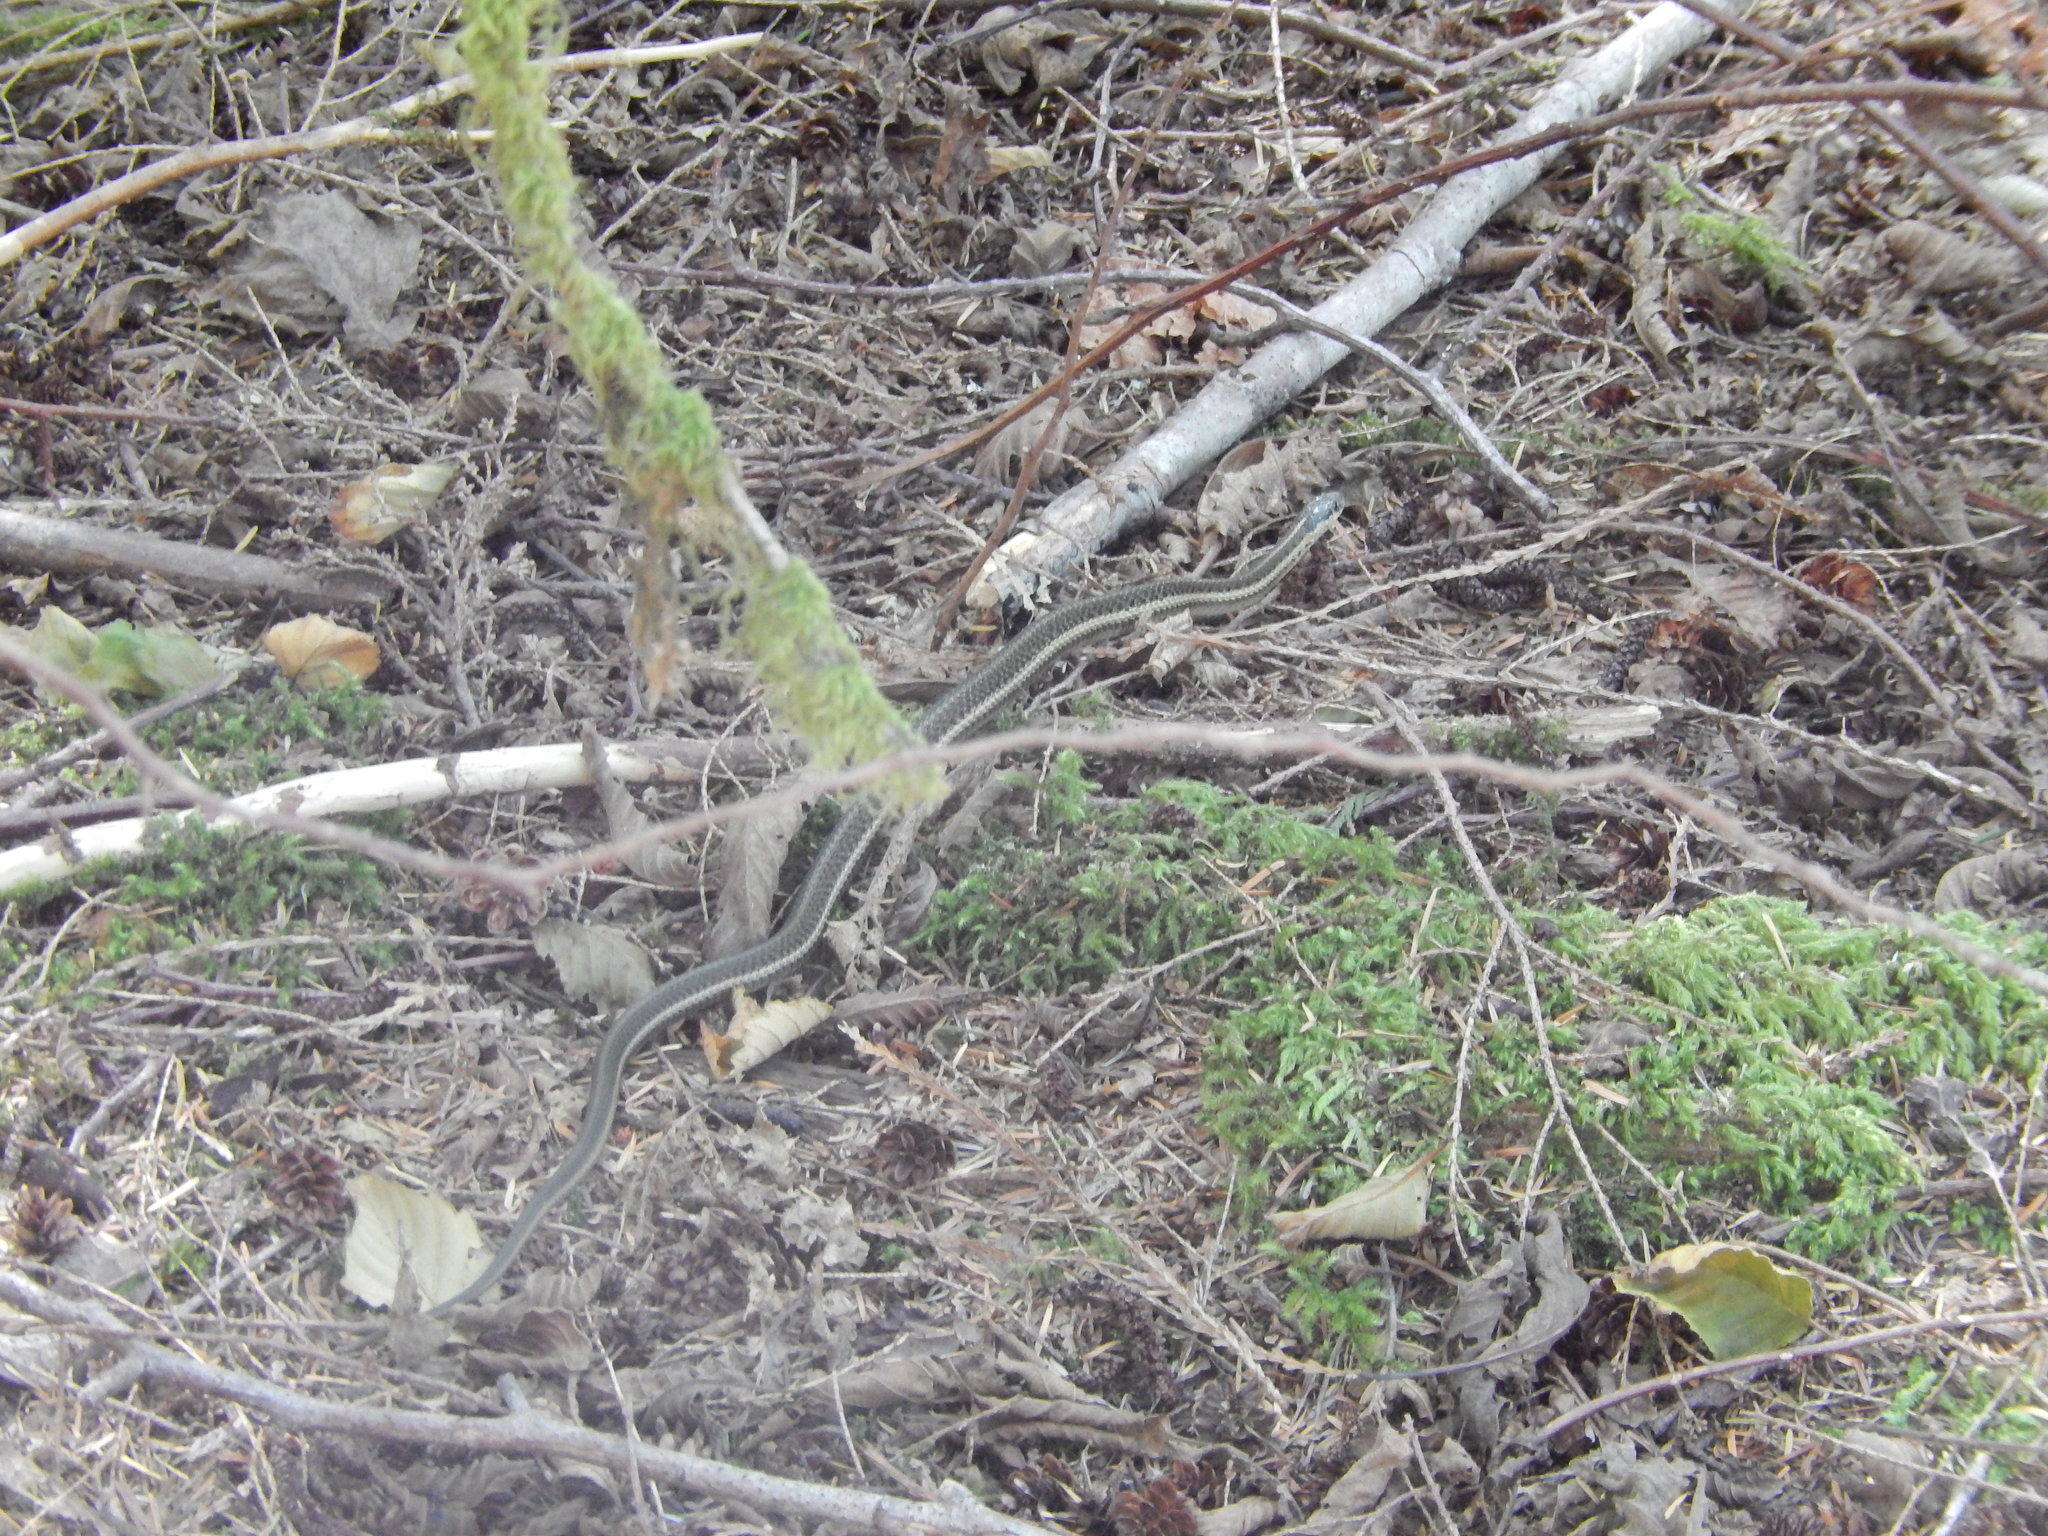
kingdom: Animalia
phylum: Chordata
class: Squamata
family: Colubridae
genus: Thamnophis
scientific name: Thamnophis ordinoides
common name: Northwestern garter snake
